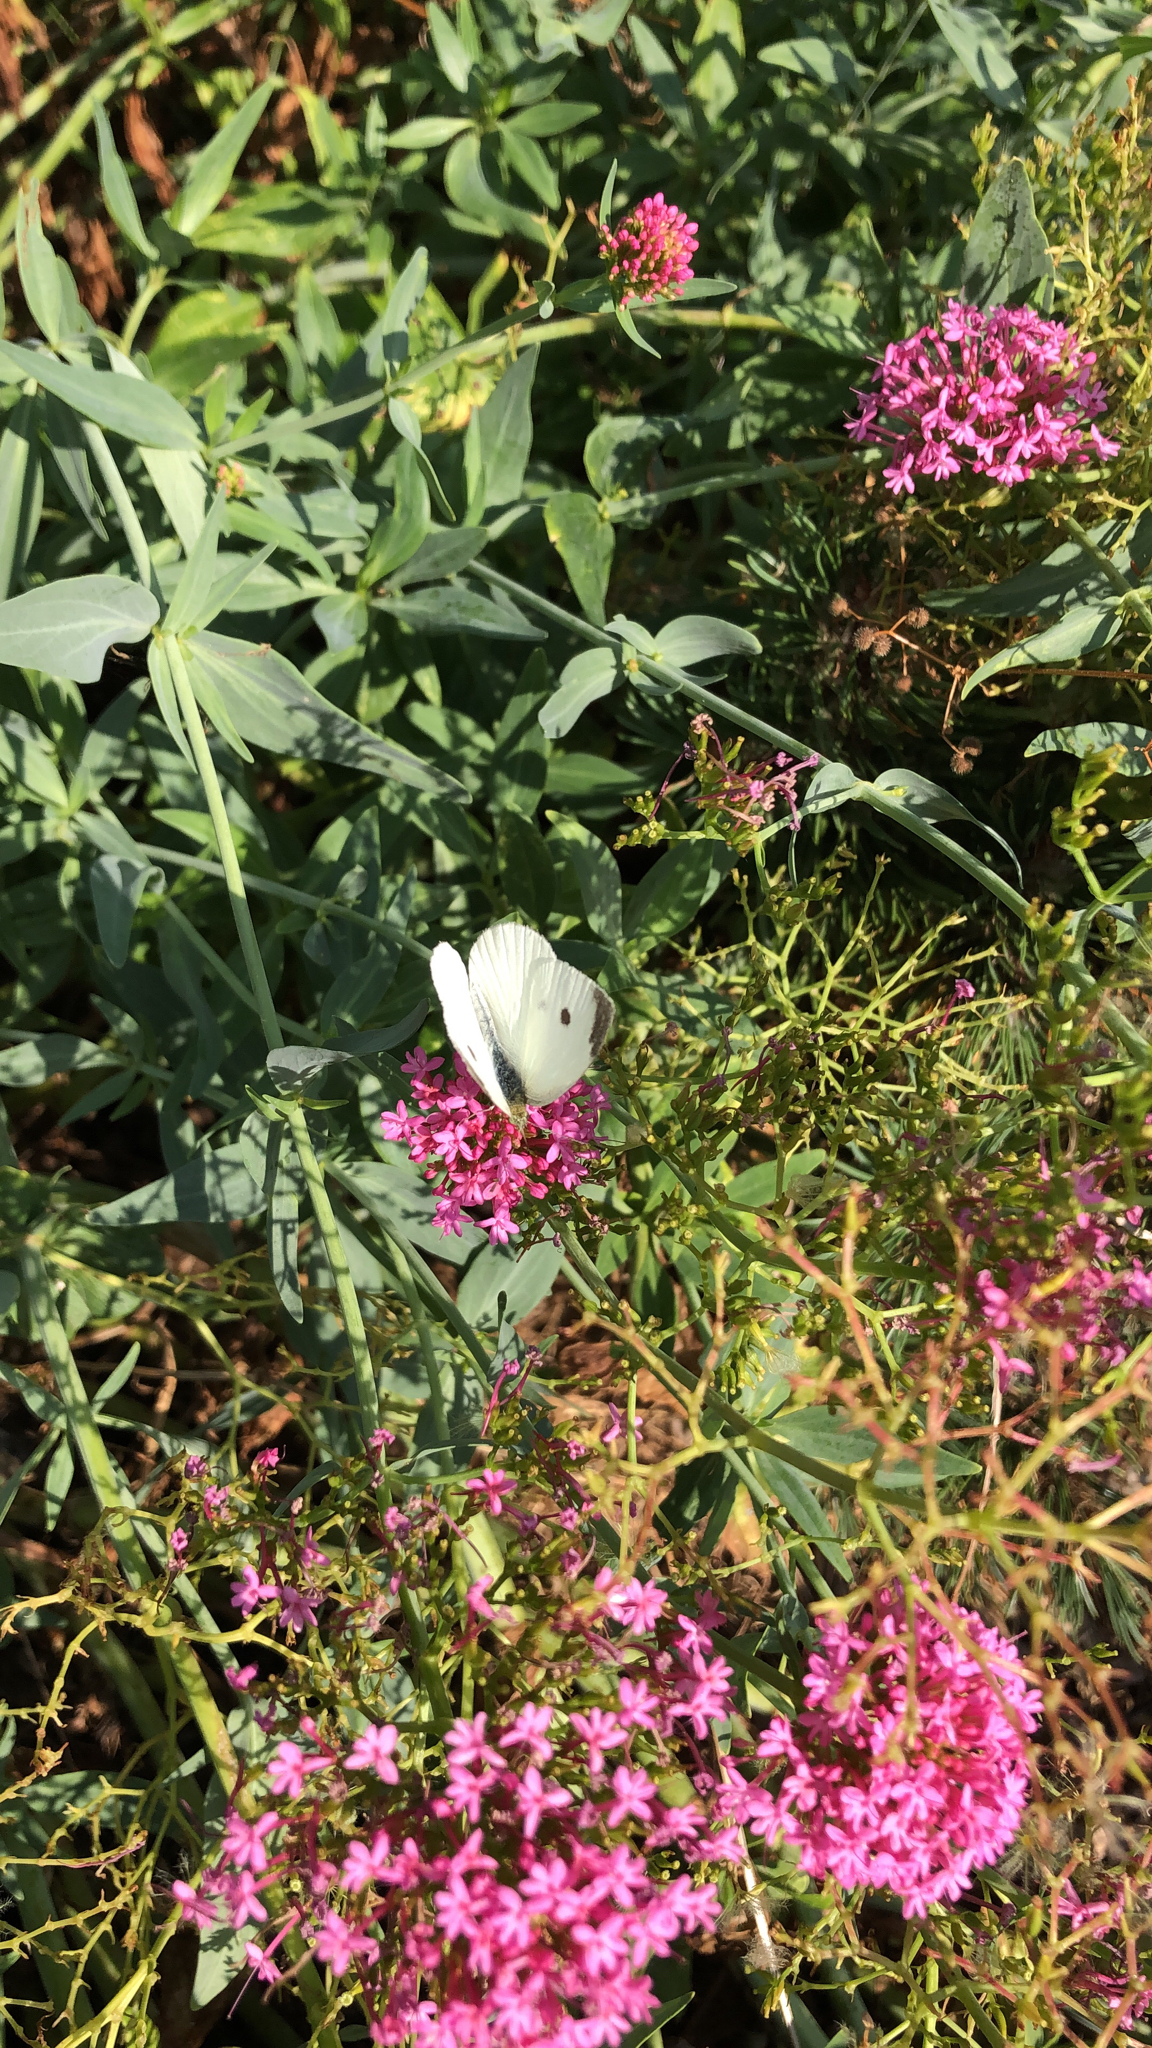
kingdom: Animalia
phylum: Arthropoda
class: Insecta
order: Lepidoptera
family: Pieridae
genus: Pieris
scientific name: Pieris rapae
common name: Small white
